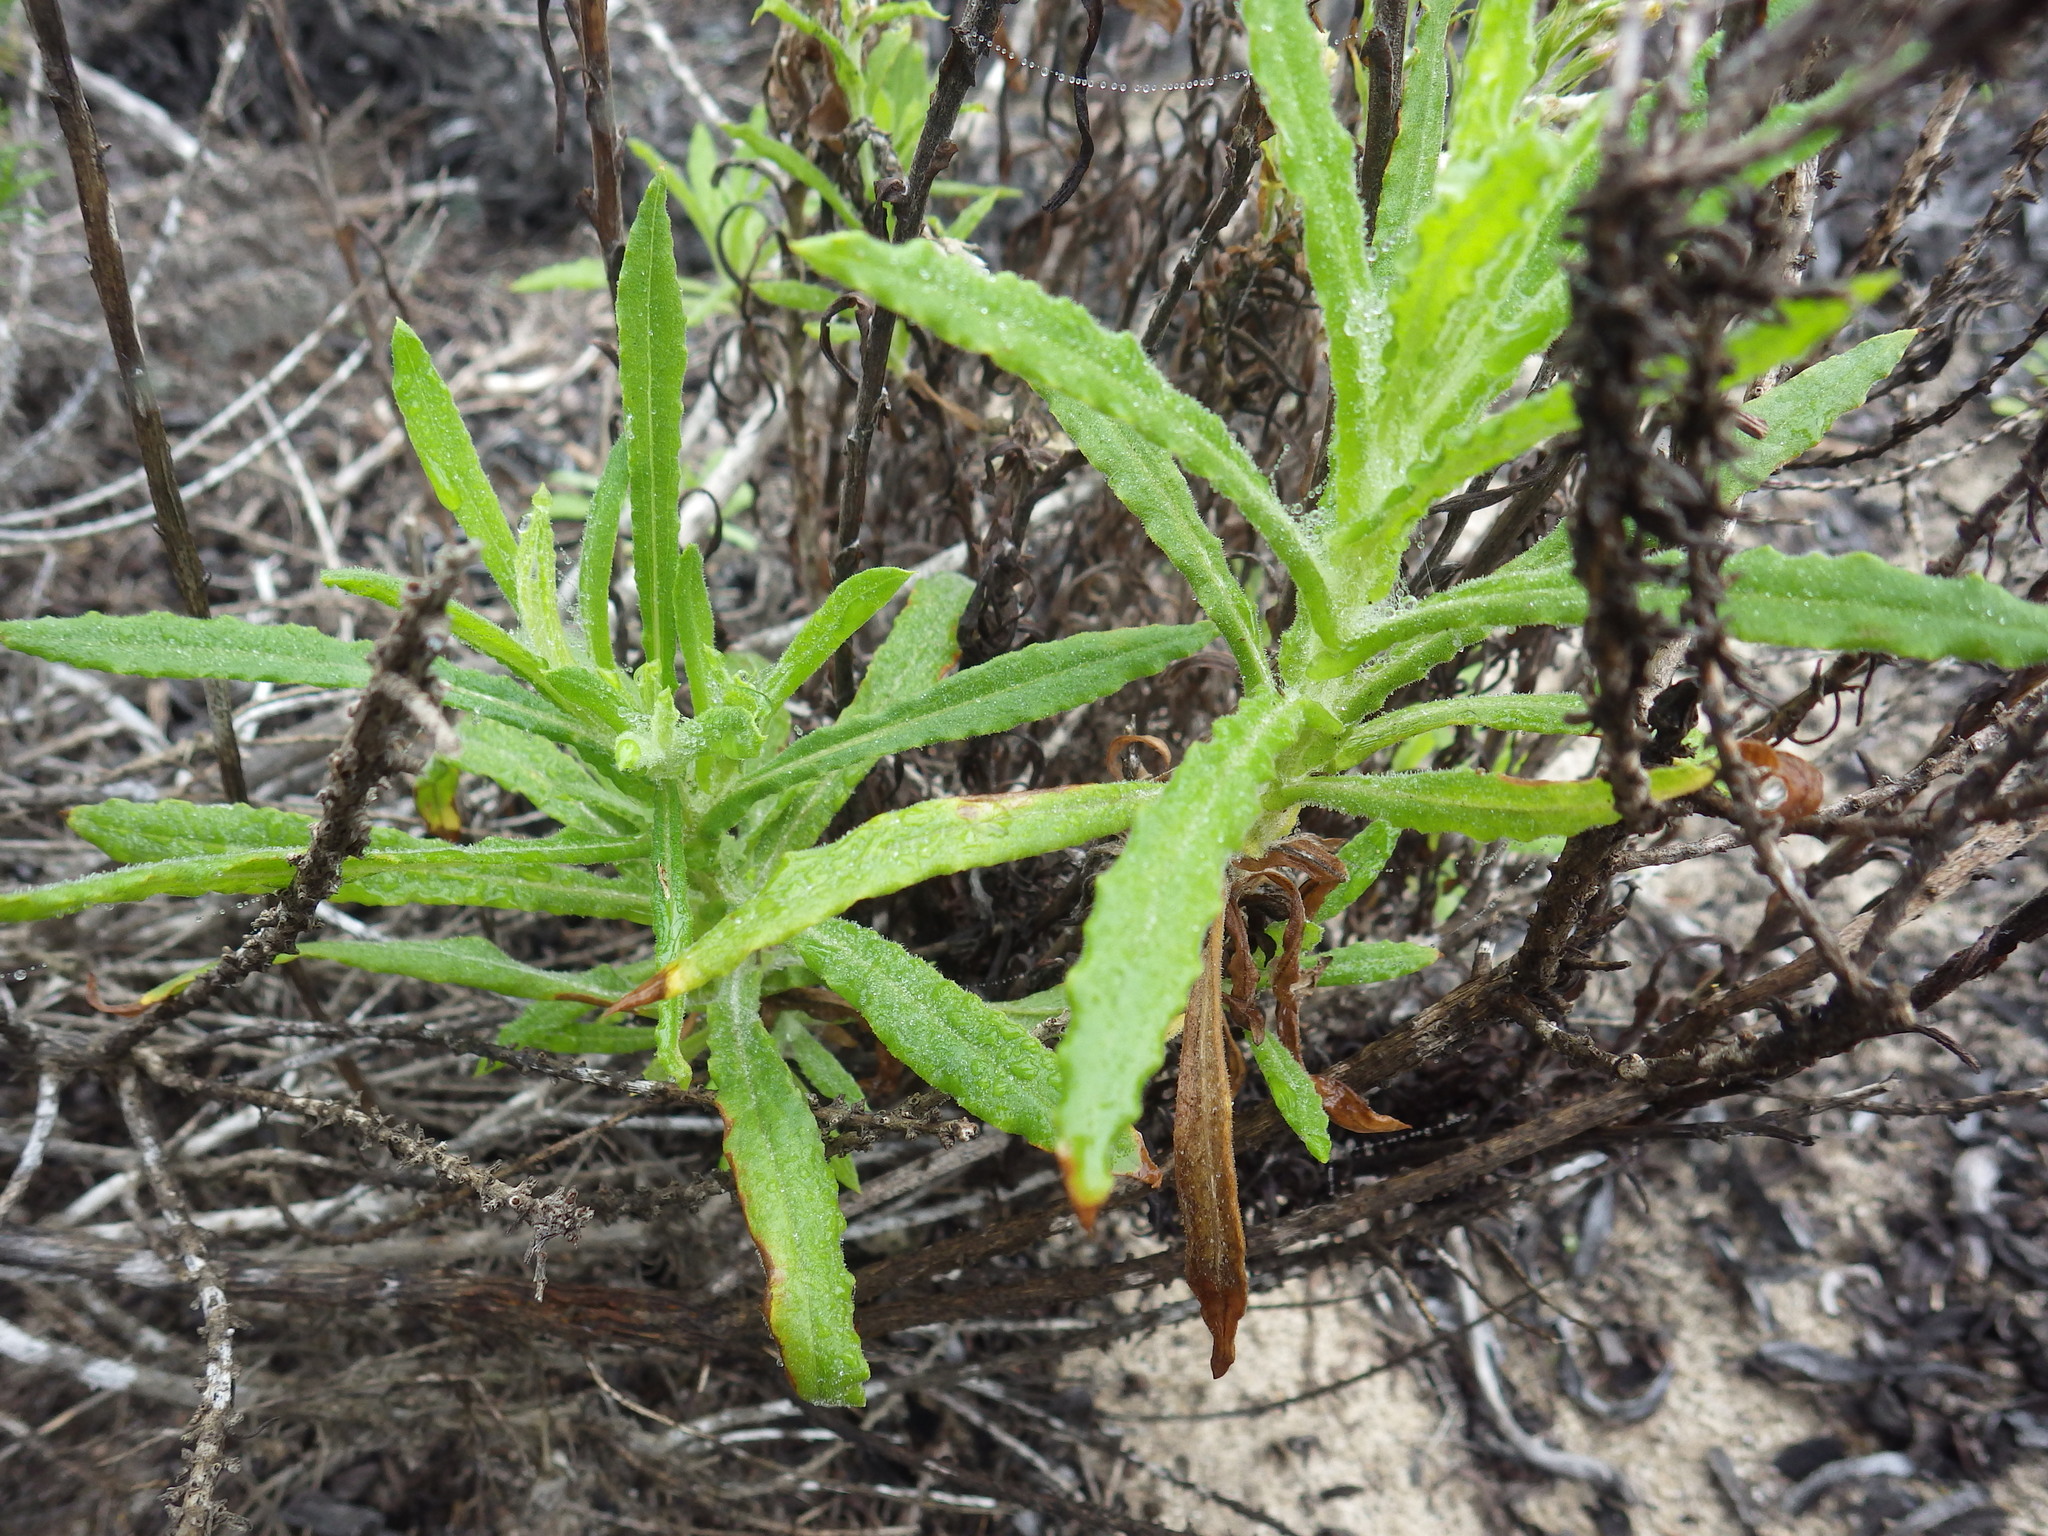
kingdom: Plantae
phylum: Tracheophyta
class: Magnoliopsida
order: Asterales
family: Asteraceae
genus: Pseudognaphalium
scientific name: Pseudognaphalium ramosissimum
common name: Pink rabbit-tobacco
